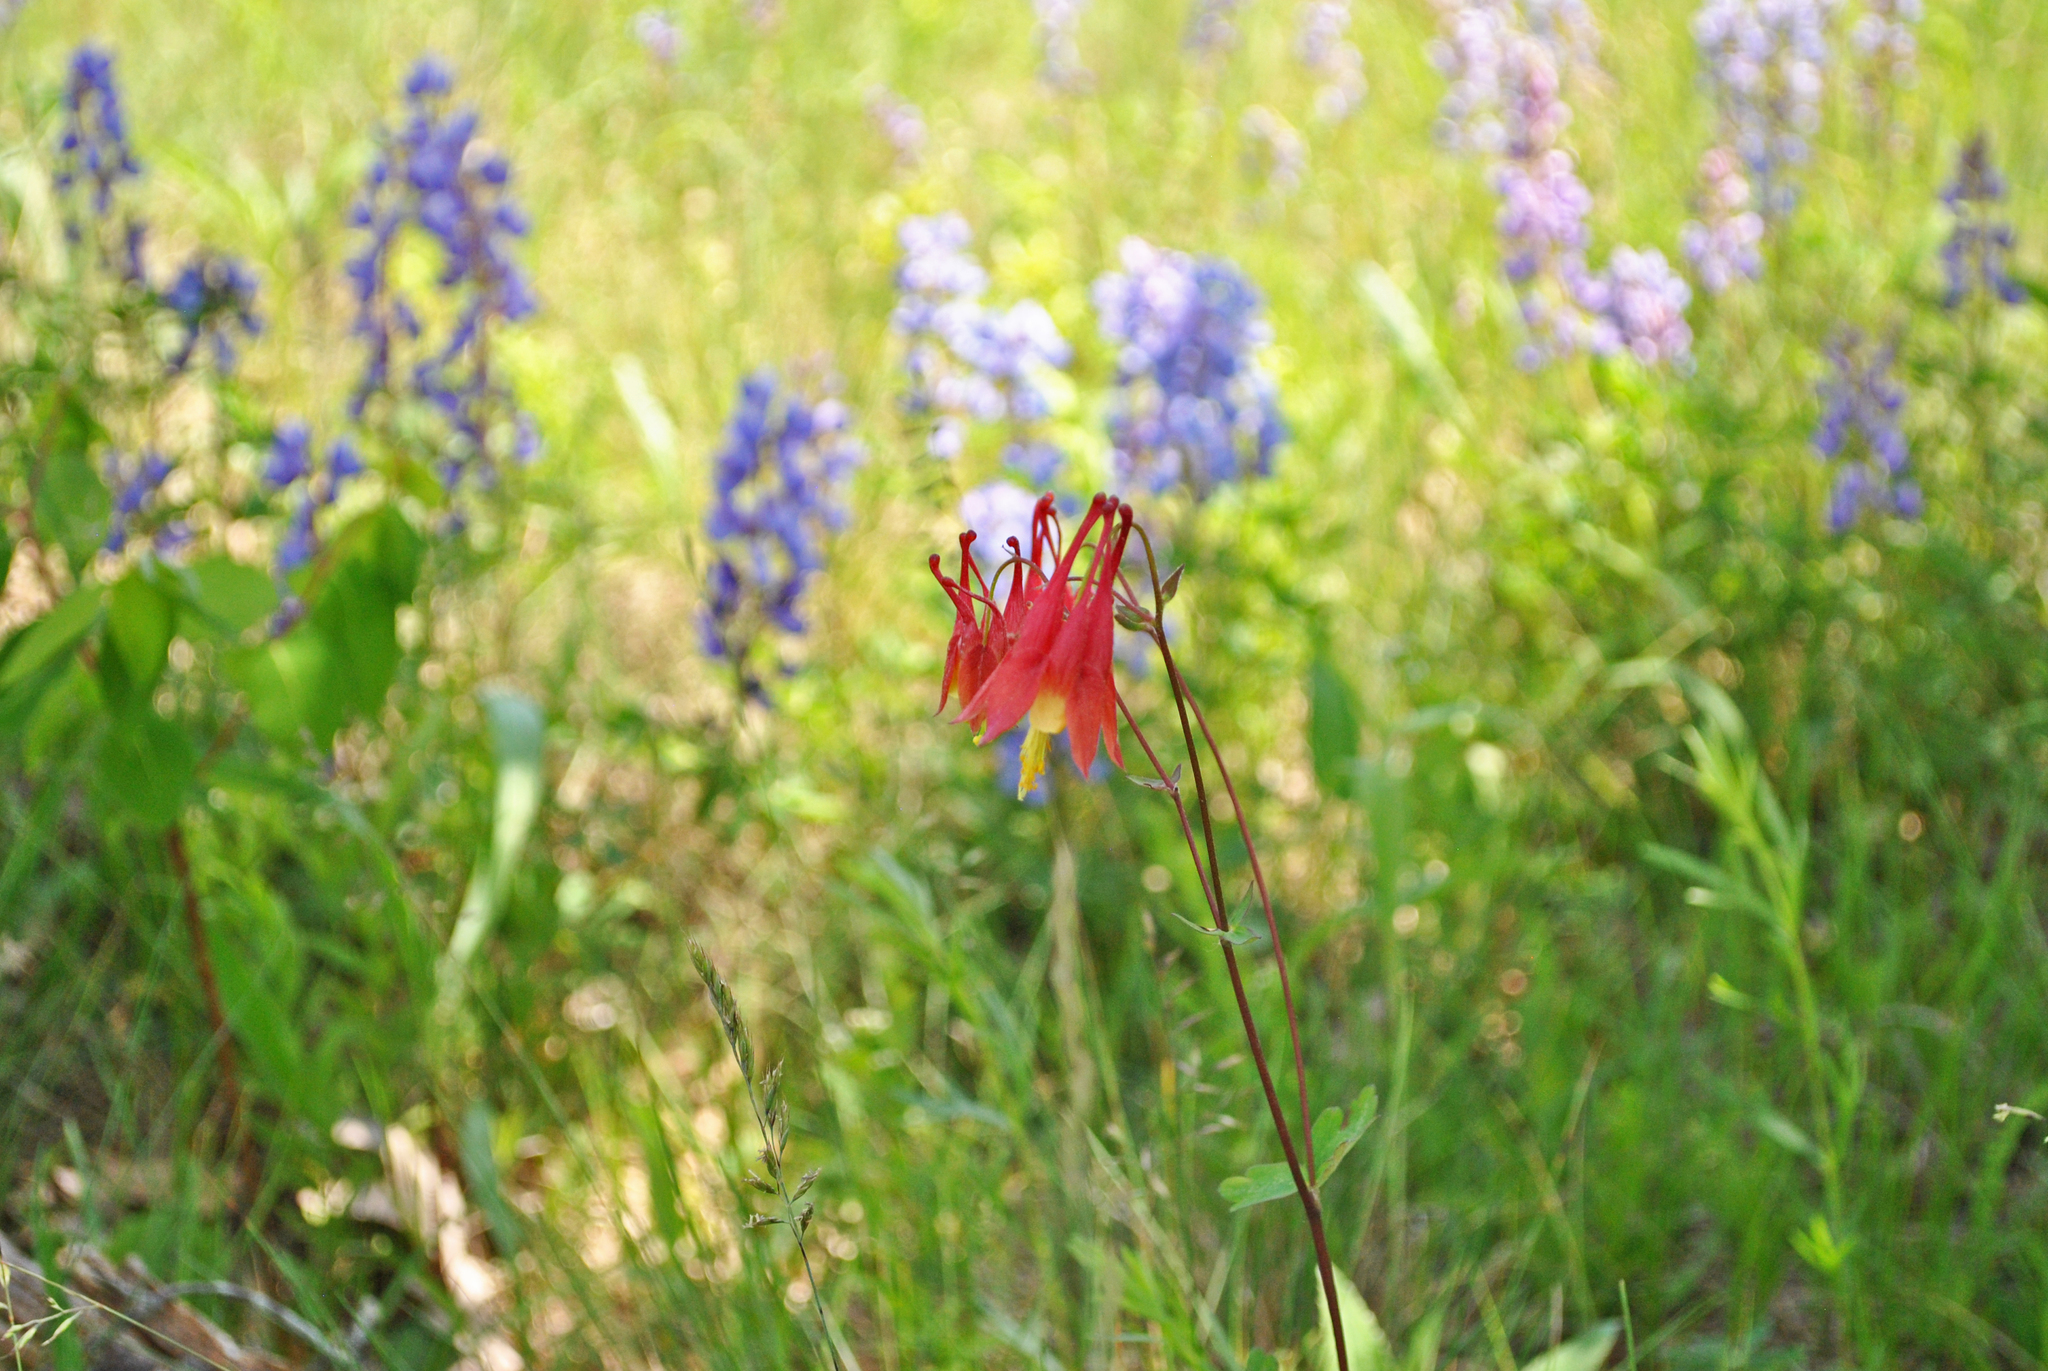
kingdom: Plantae
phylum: Tracheophyta
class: Magnoliopsida
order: Ranunculales
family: Ranunculaceae
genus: Aquilegia
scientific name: Aquilegia canadensis
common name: American columbine
